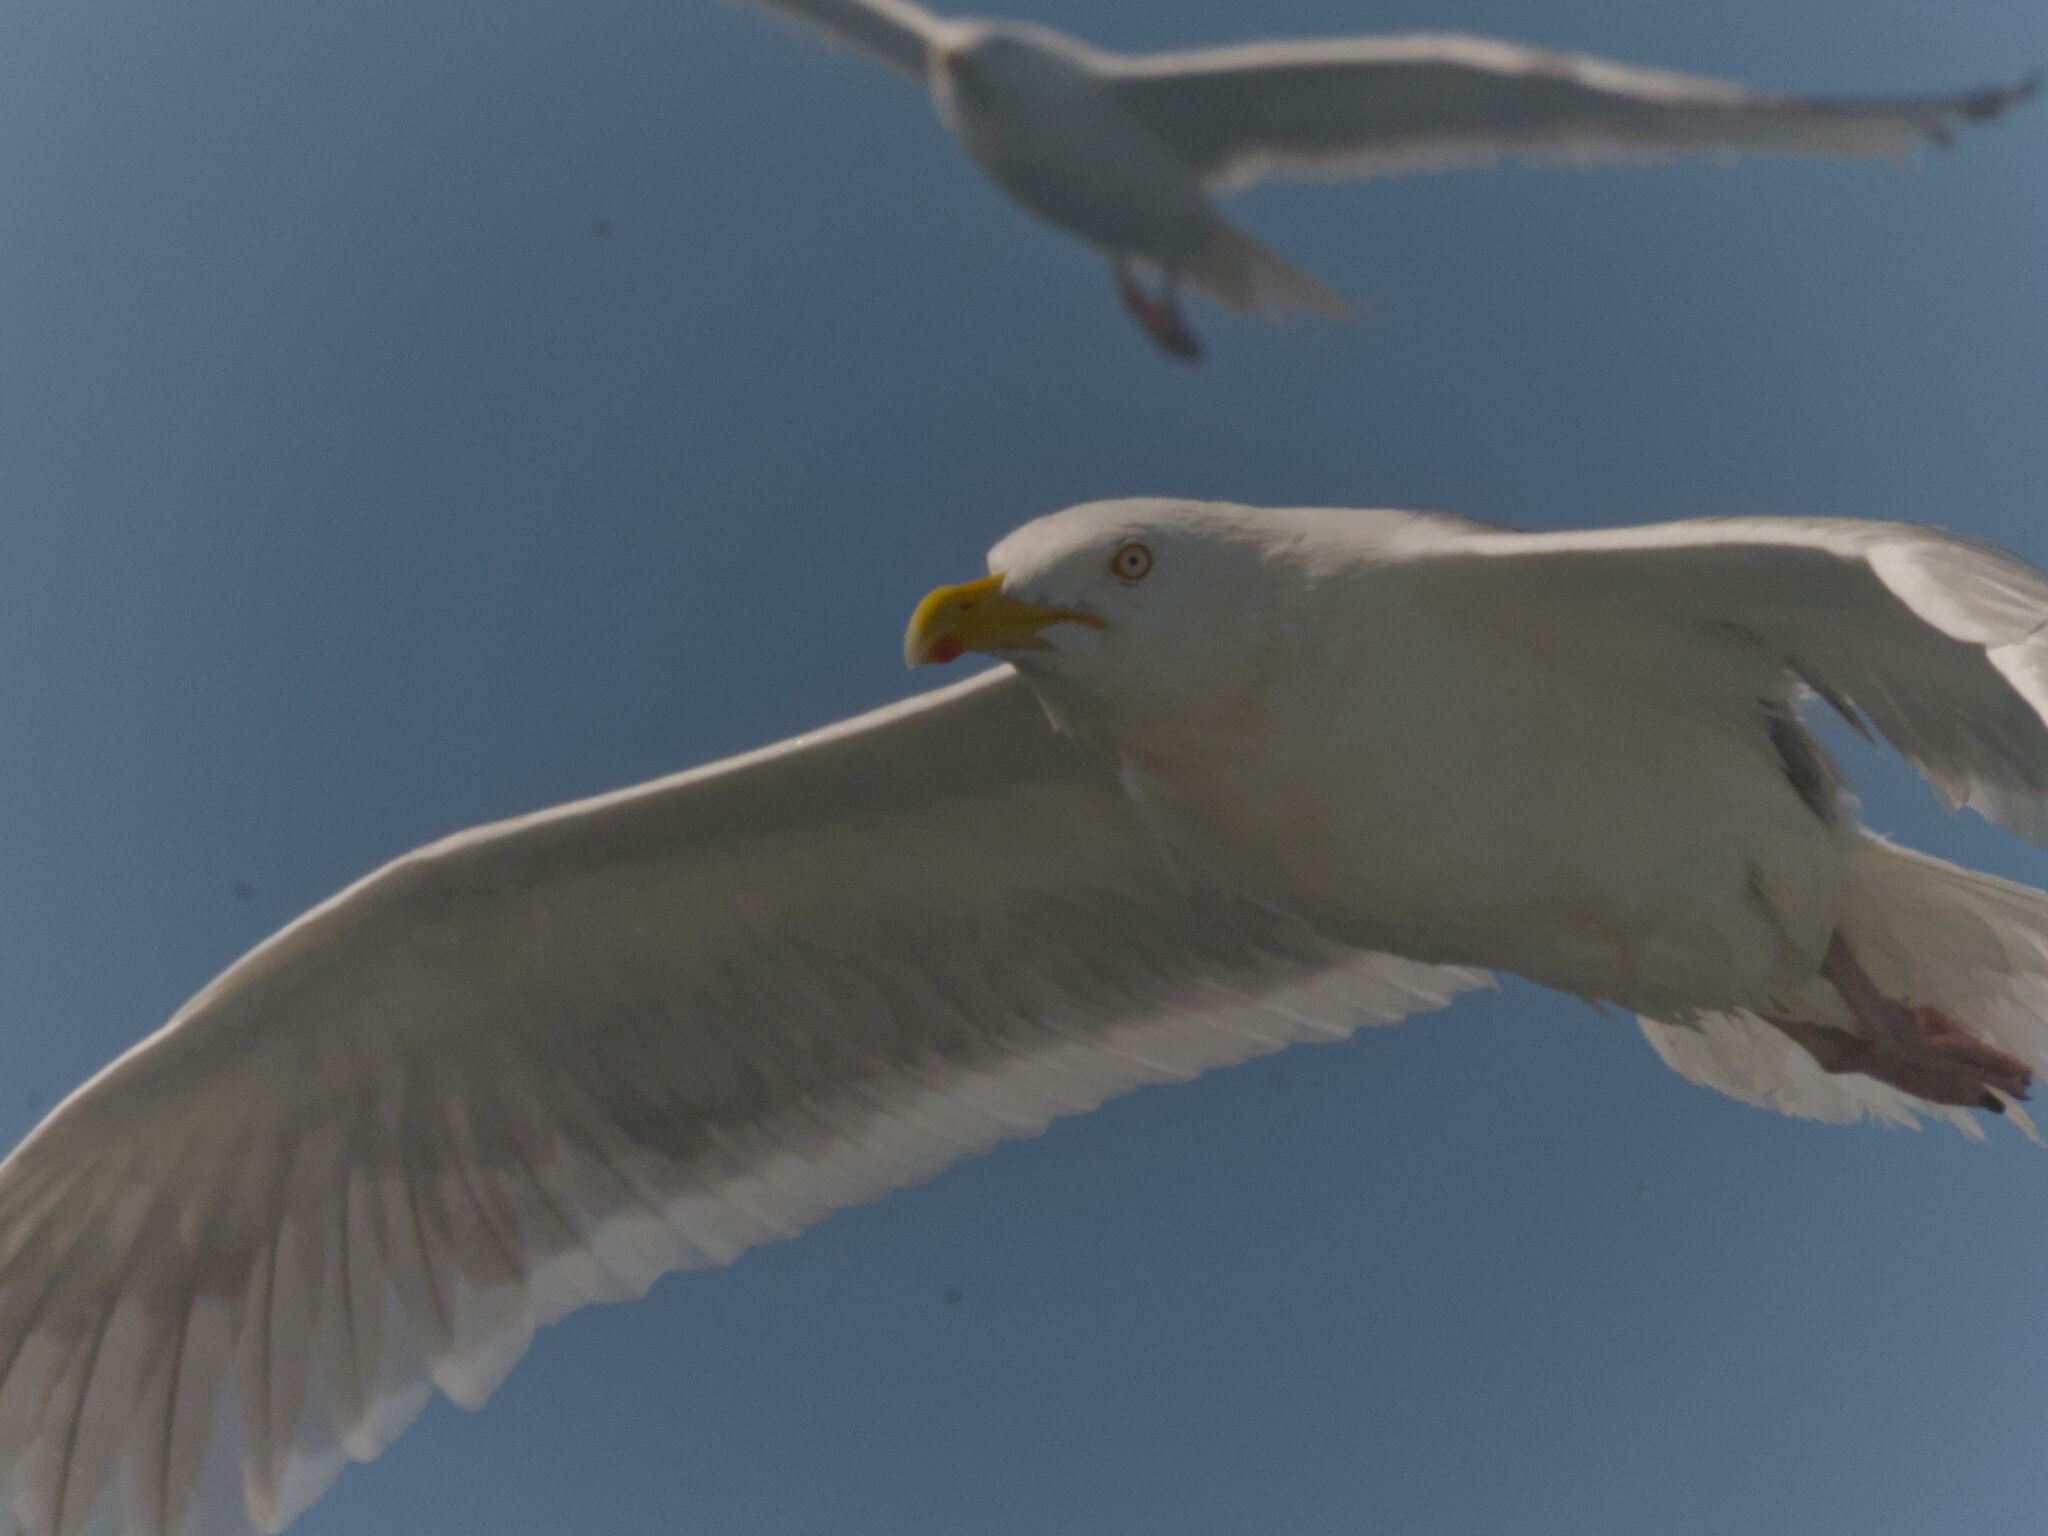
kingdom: Animalia
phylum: Chordata
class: Aves
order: Charadriiformes
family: Laridae
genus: Larus
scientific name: Larus argentatus
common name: Herring gull
